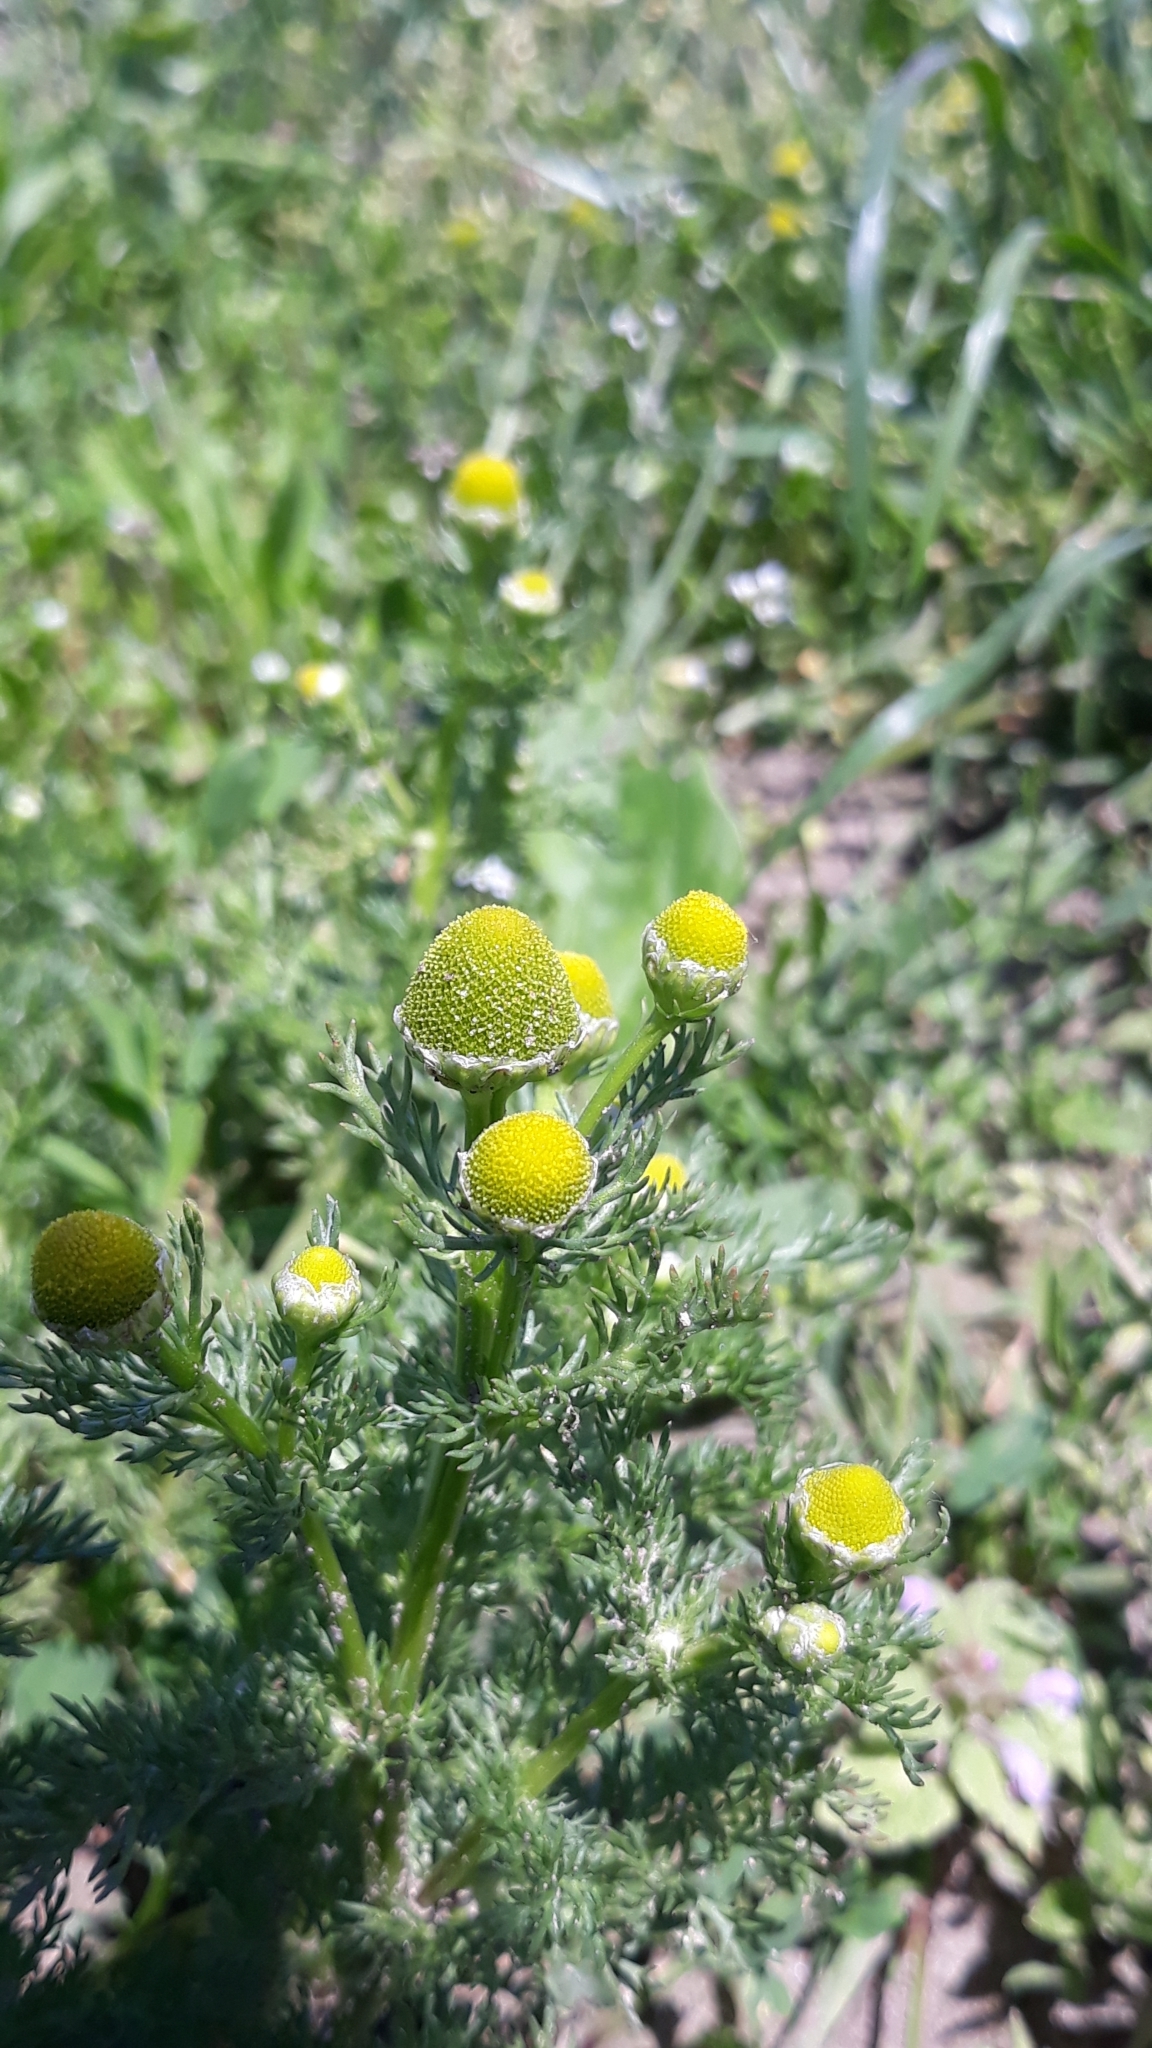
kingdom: Plantae
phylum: Tracheophyta
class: Magnoliopsida
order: Asterales
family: Asteraceae
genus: Matricaria
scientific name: Matricaria discoidea
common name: Disc mayweed
